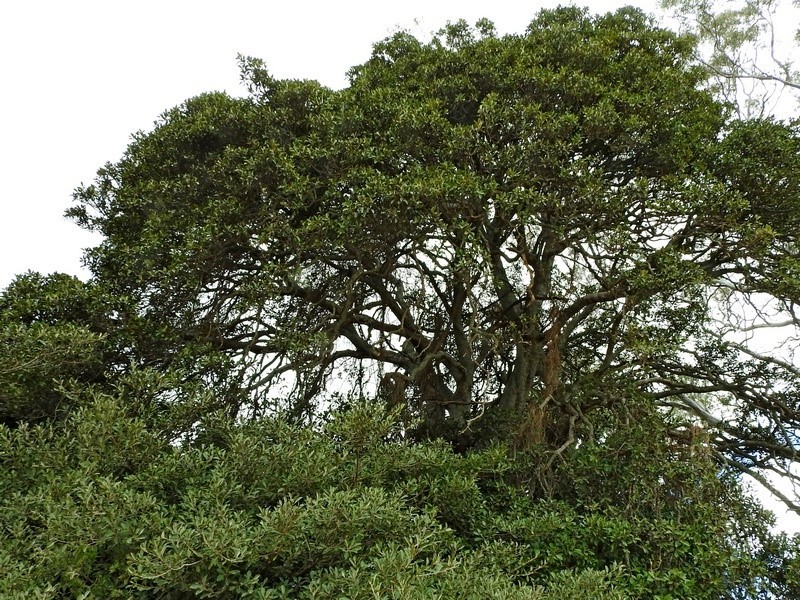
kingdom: Plantae
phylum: Tracheophyta
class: Magnoliopsida
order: Rosales
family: Moraceae
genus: Ficus
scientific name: Ficus rubiginosa
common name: Port jackson fig
